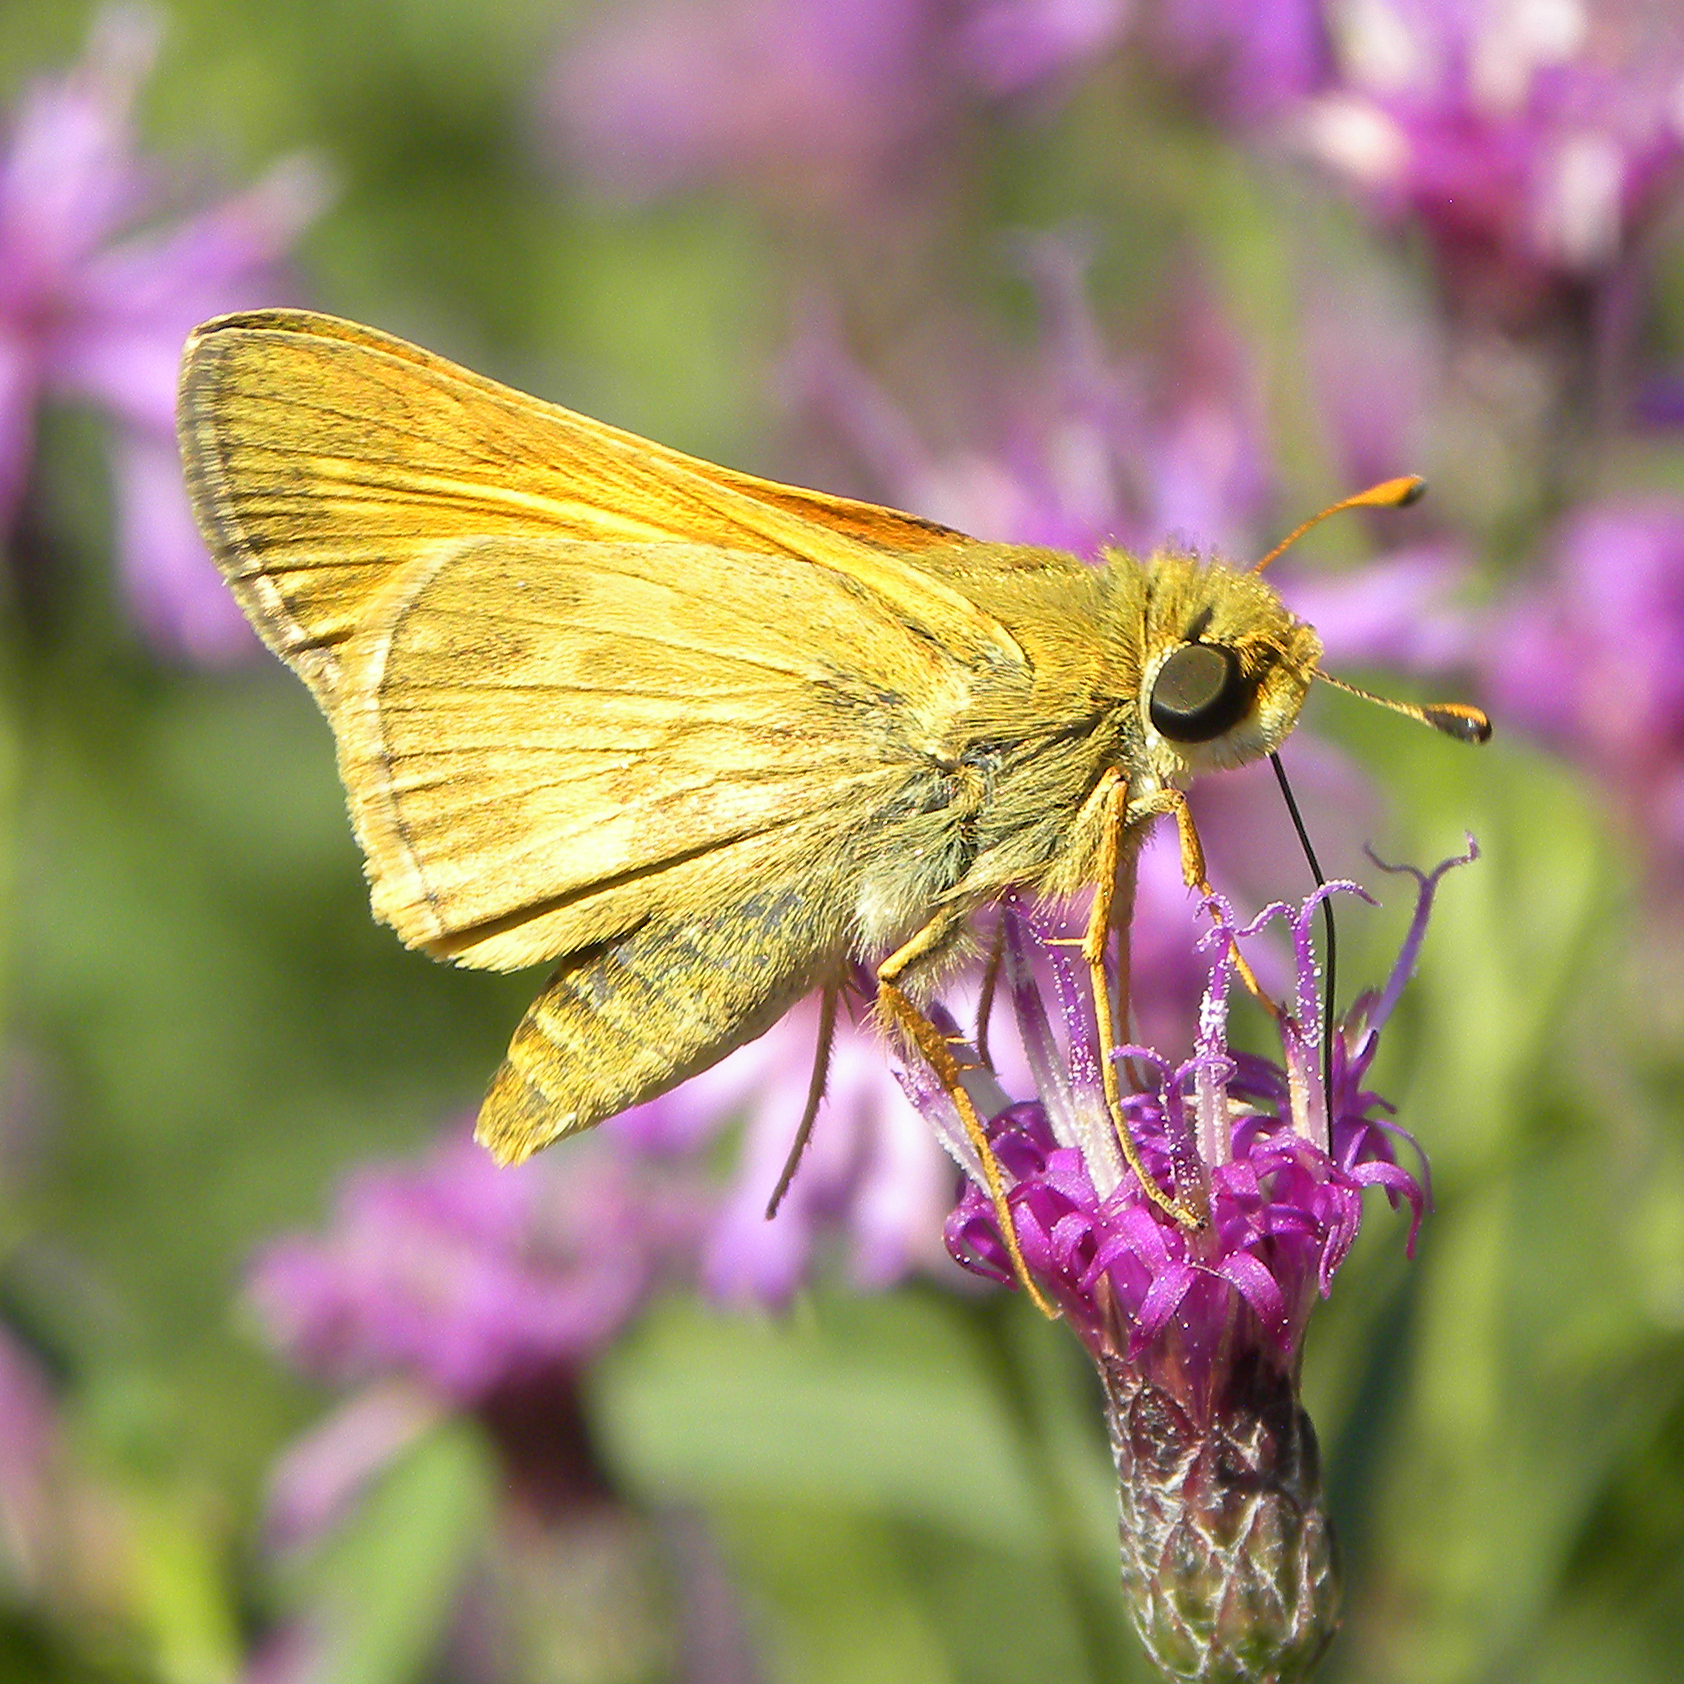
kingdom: Animalia
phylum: Arthropoda
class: Insecta
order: Lepidoptera
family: Hesperiidae
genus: Atalopedes
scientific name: Atalopedes
